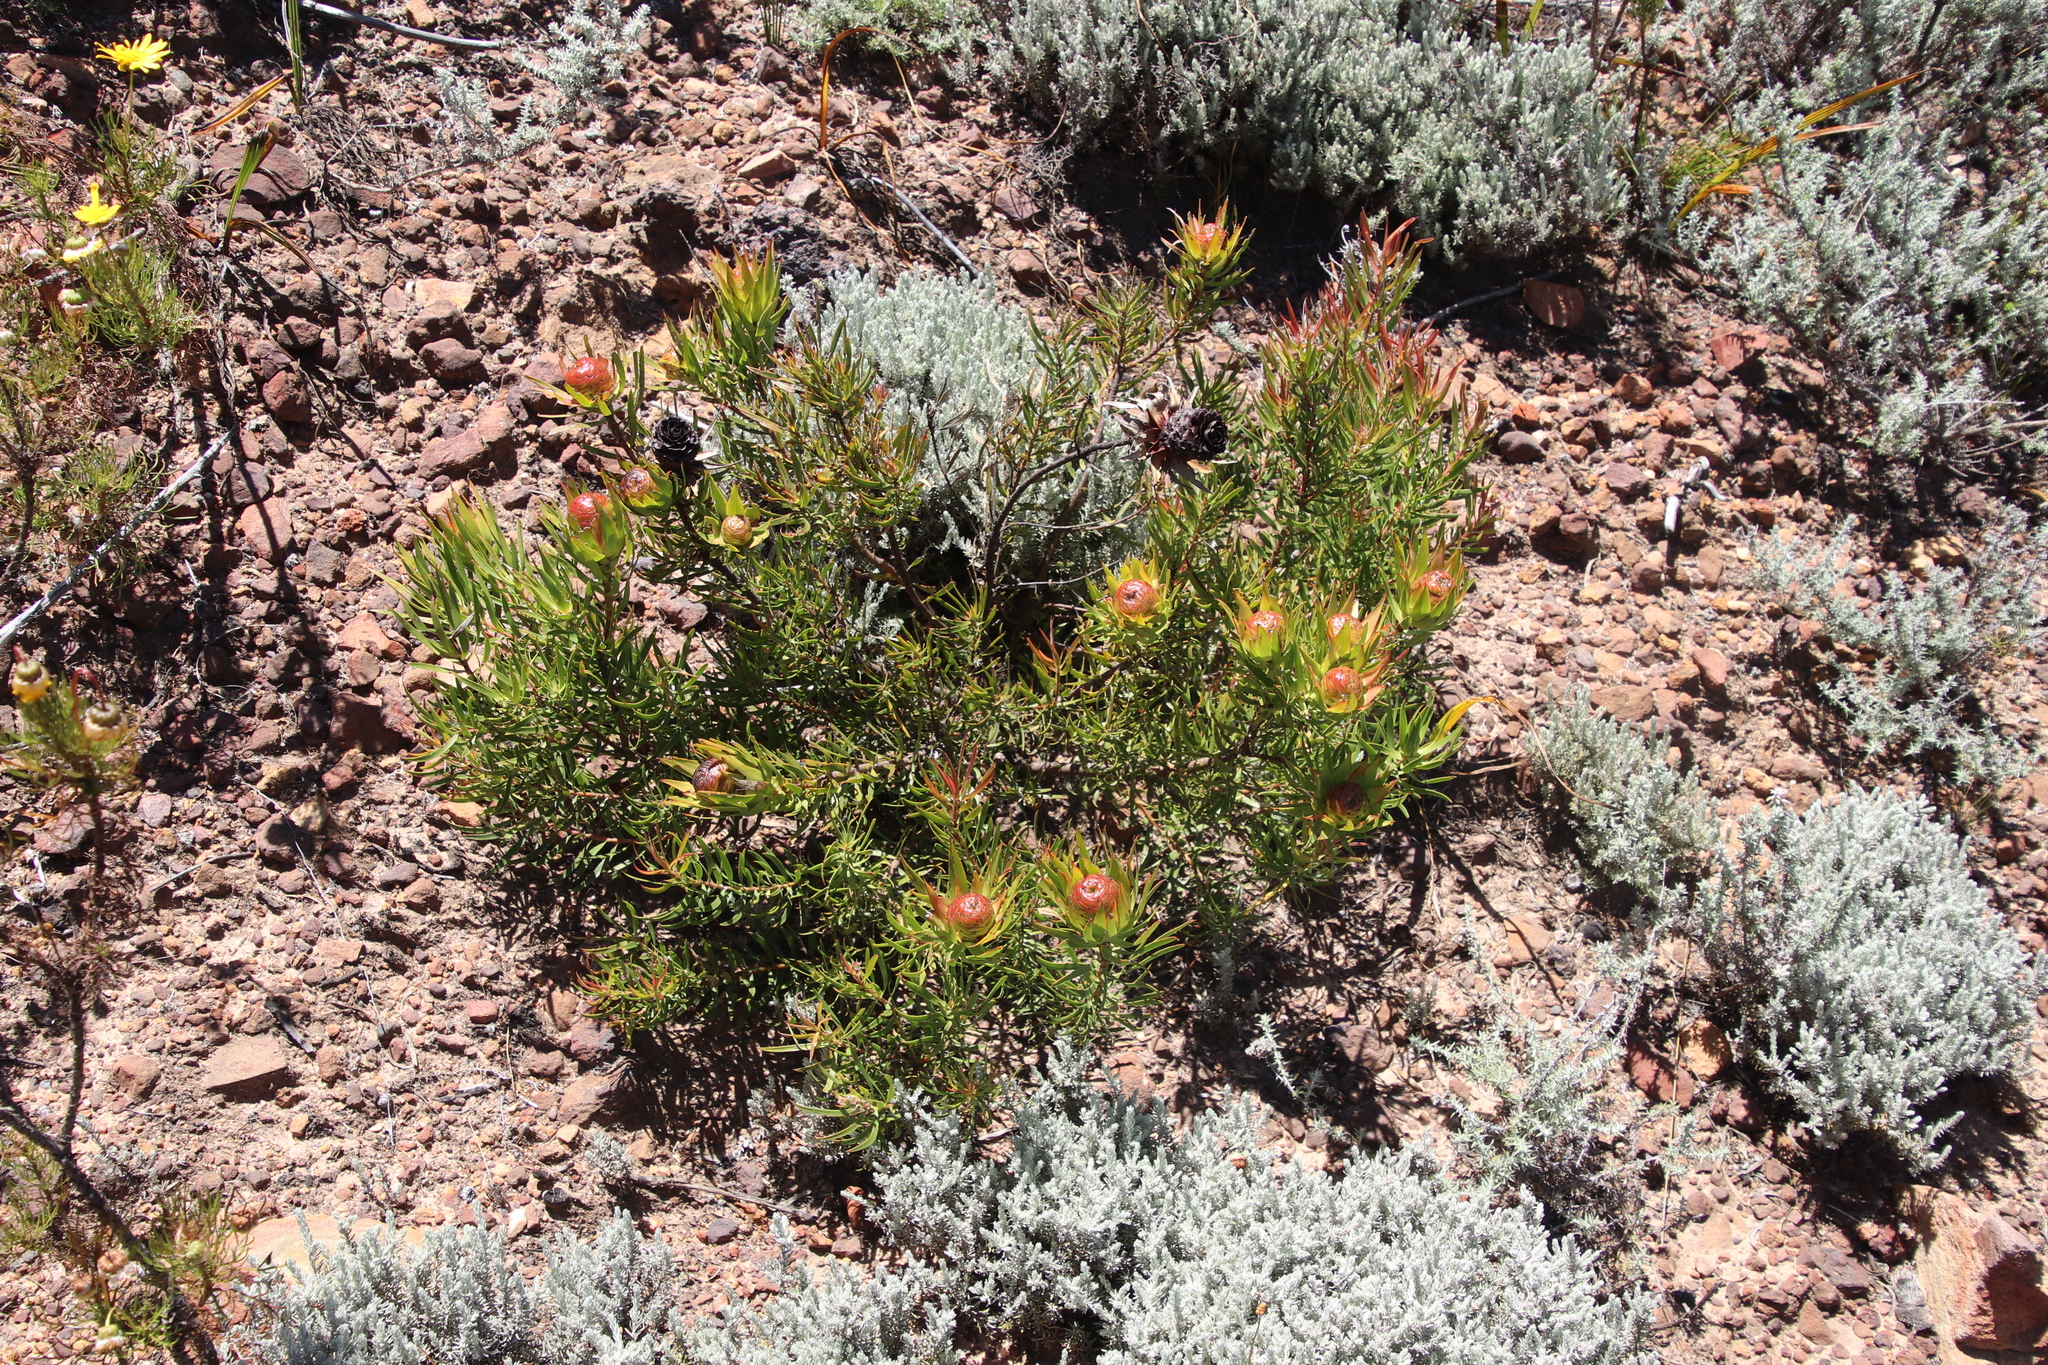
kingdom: Plantae
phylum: Tracheophyta
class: Magnoliopsida
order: Proteales
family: Proteaceae
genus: Leucadendron
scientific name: Leucadendron spissifolium
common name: Spear-leaf conebush
